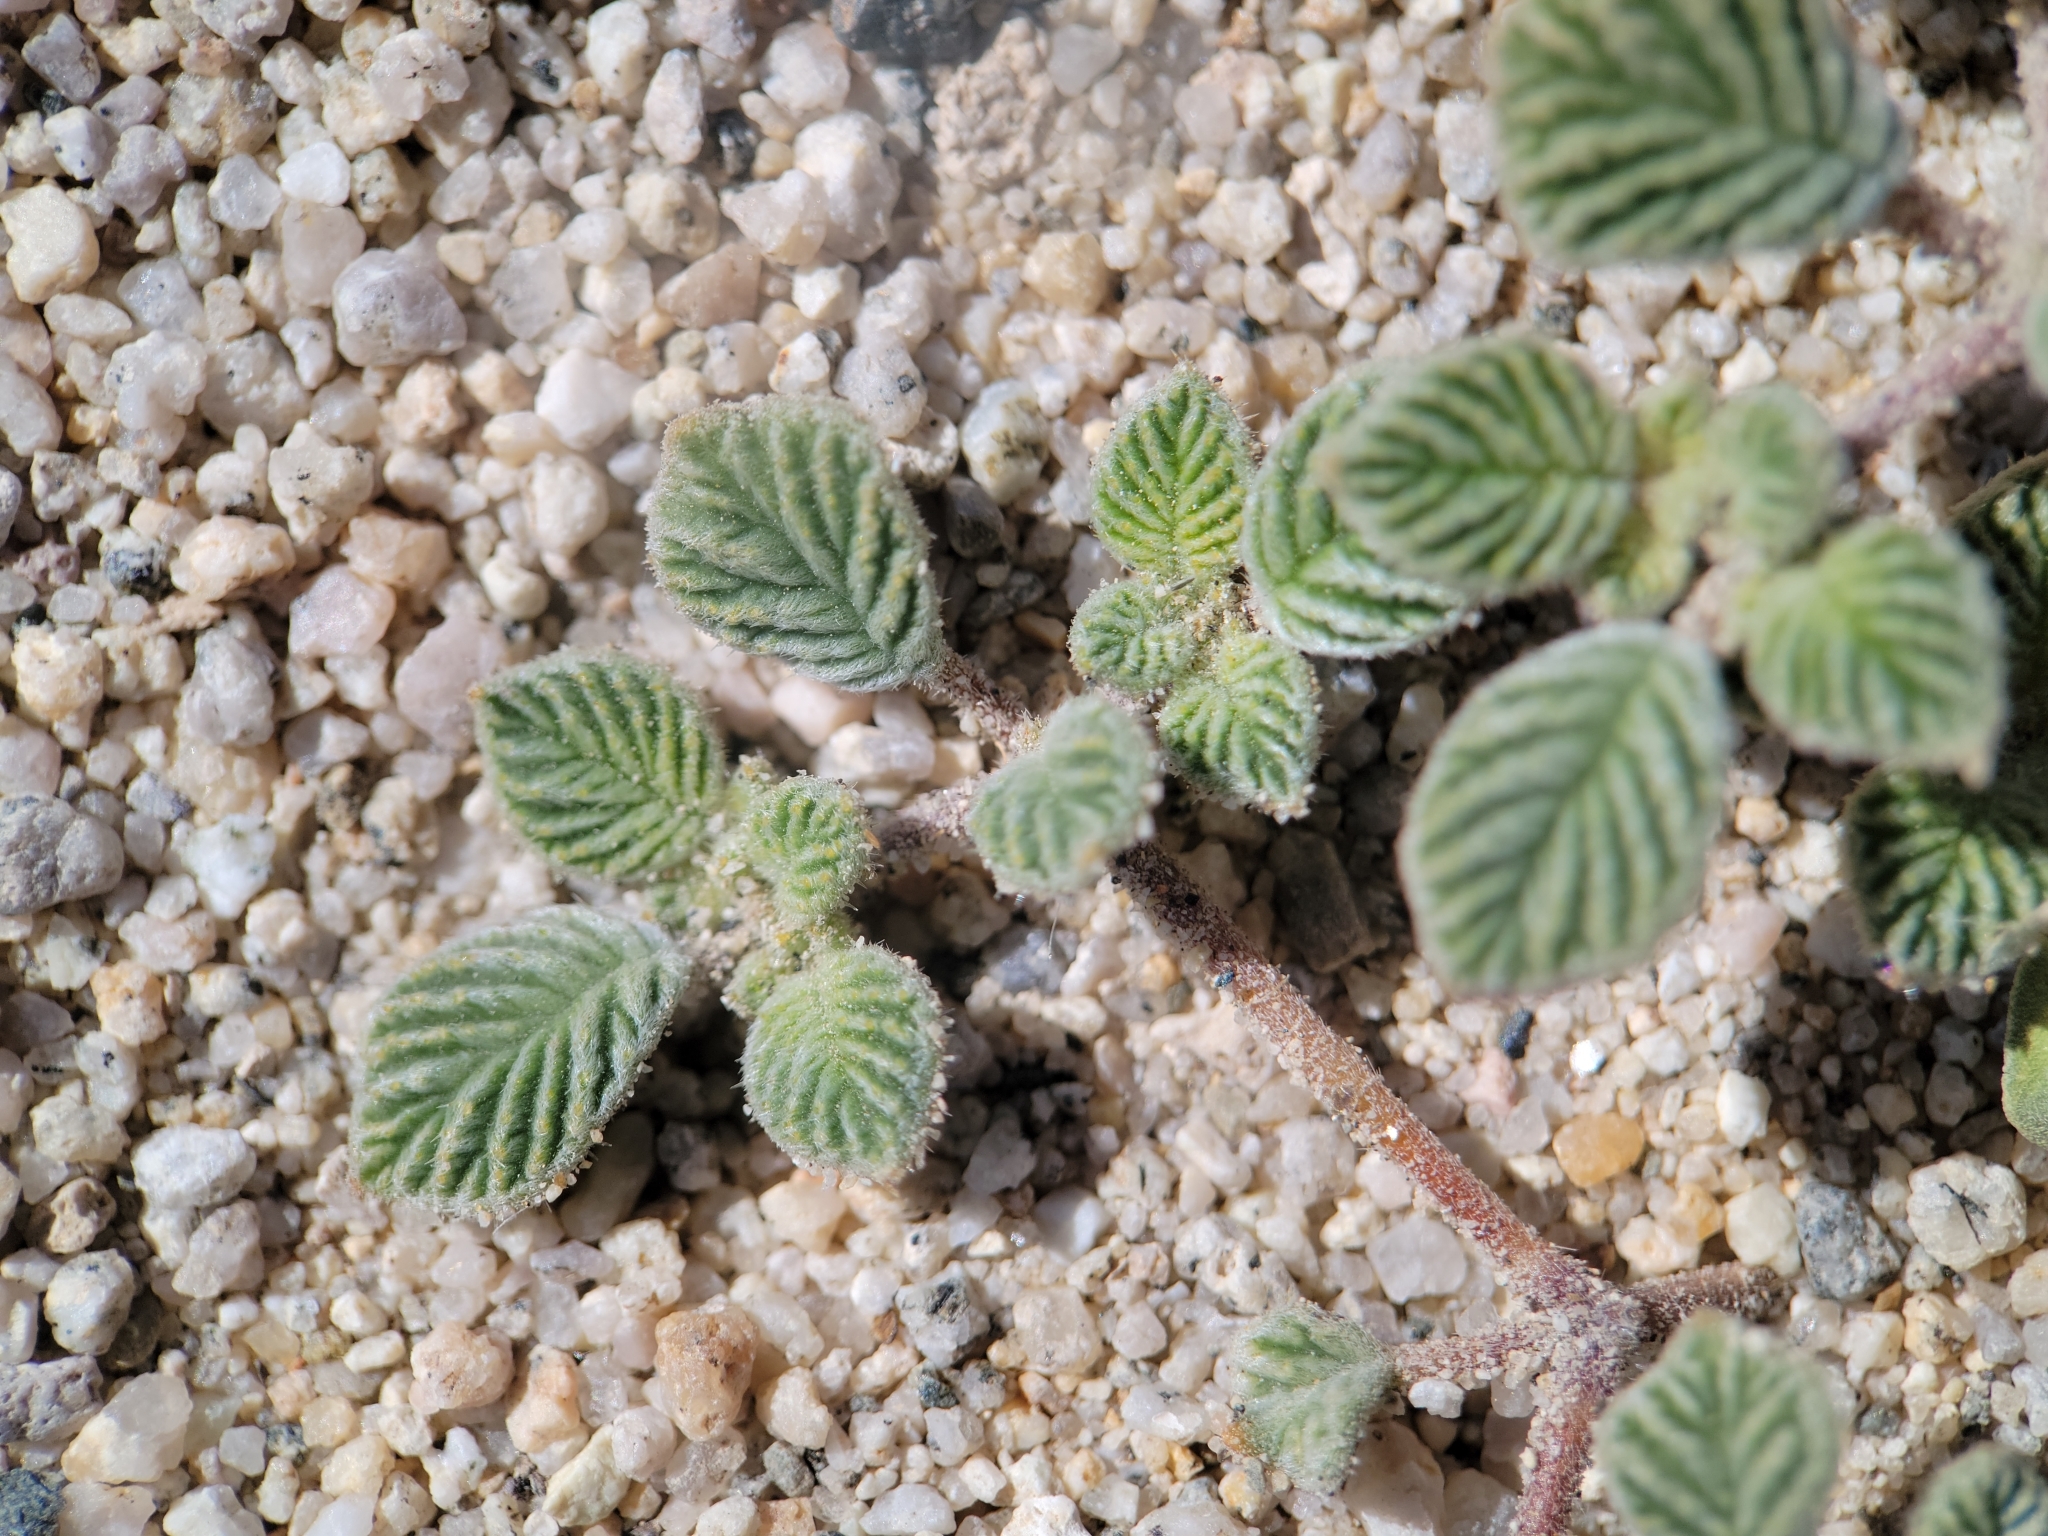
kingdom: Plantae
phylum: Tracheophyta
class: Magnoliopsida
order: Boraginales
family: Ehretiaceae
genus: Tiquilia
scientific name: Tiquilia plicata
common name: Fan-leaf tiquilia
